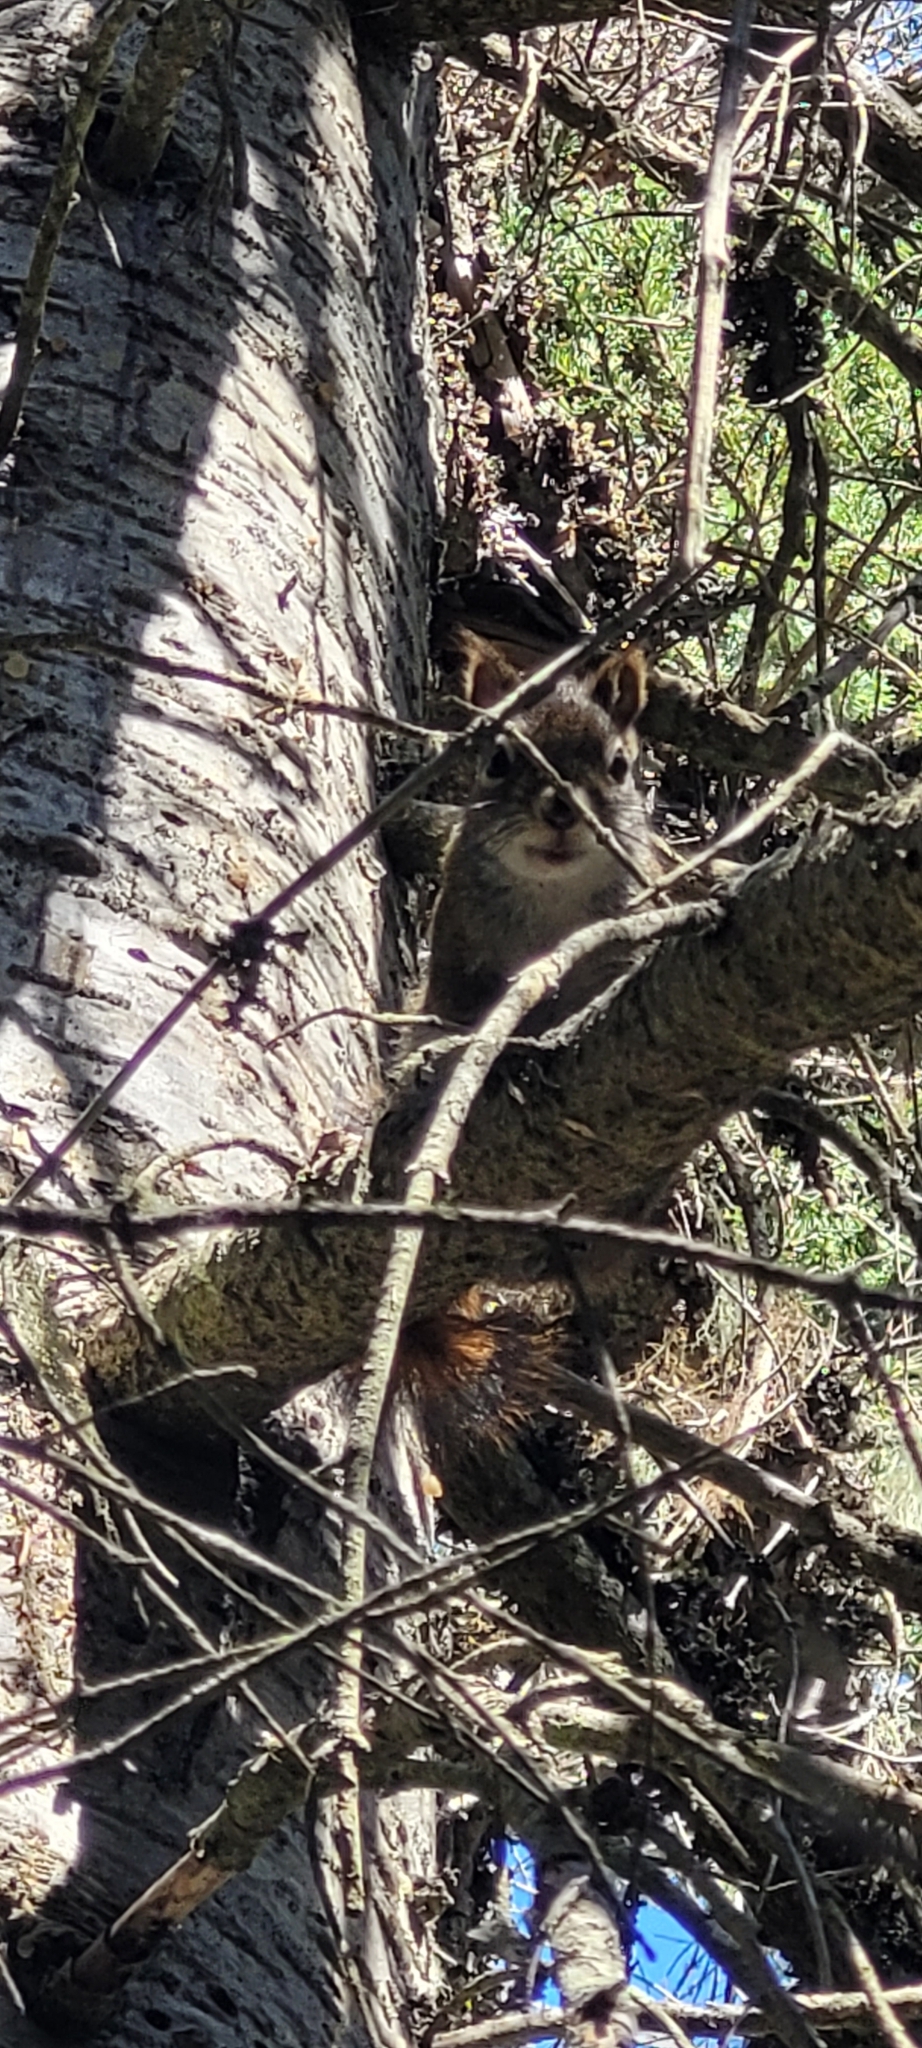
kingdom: Animalia
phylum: Chordata
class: Mammalia
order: Rodentia
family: Sciuridae
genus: Tamiasciurus
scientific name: Tamiasciurus hudsonicus
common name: Red squirrel
